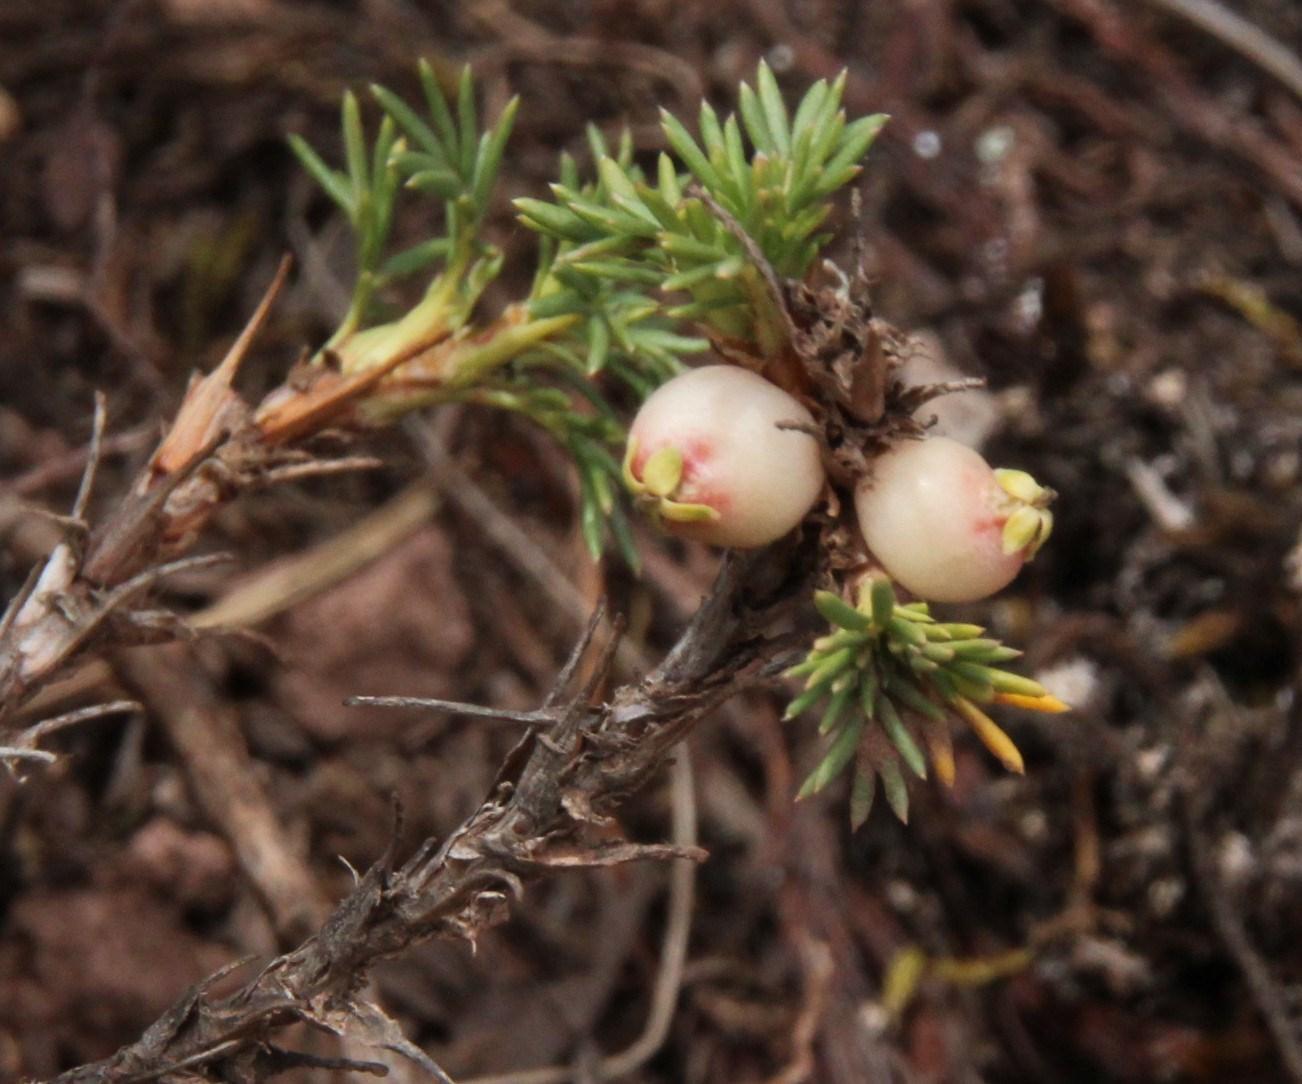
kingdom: Plantae
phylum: Tracheophyta
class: Magnoliopsida
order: Rosales
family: Rosaceae
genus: Margyricarpus
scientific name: Margyricarpus pinnatus
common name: Pearlfruit
